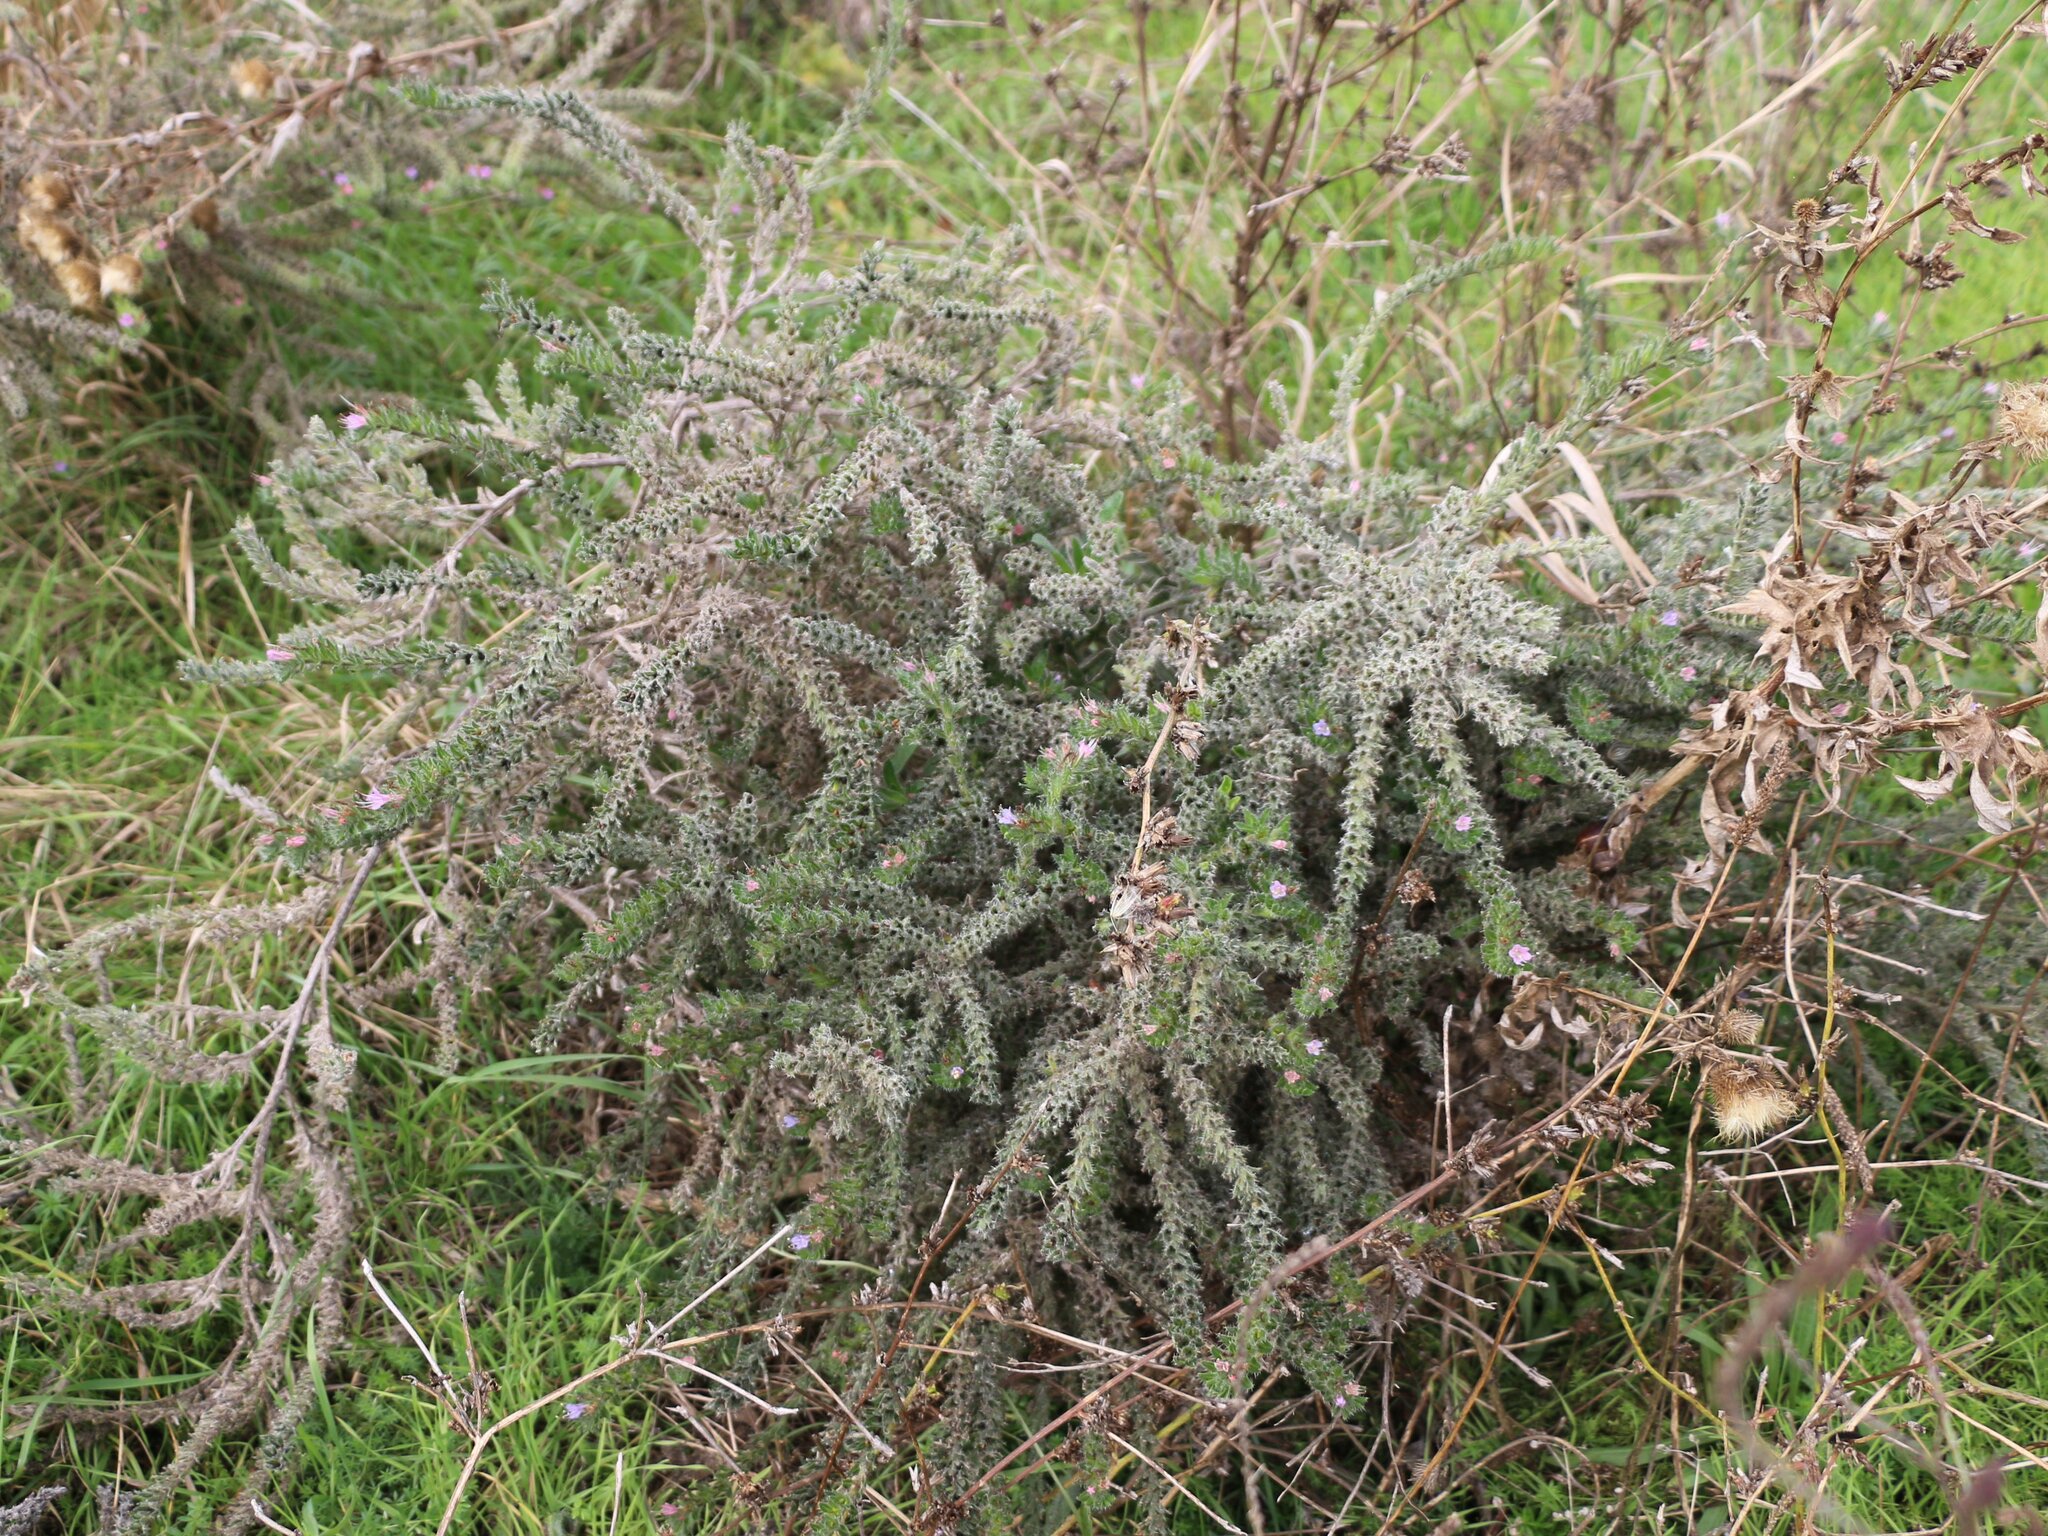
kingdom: Plantae
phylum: Tracheophyta
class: Magnoliopsida
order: Boraginales
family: Boraginaceae
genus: Echium
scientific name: Echium italicum
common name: Italian viper's bugloss
